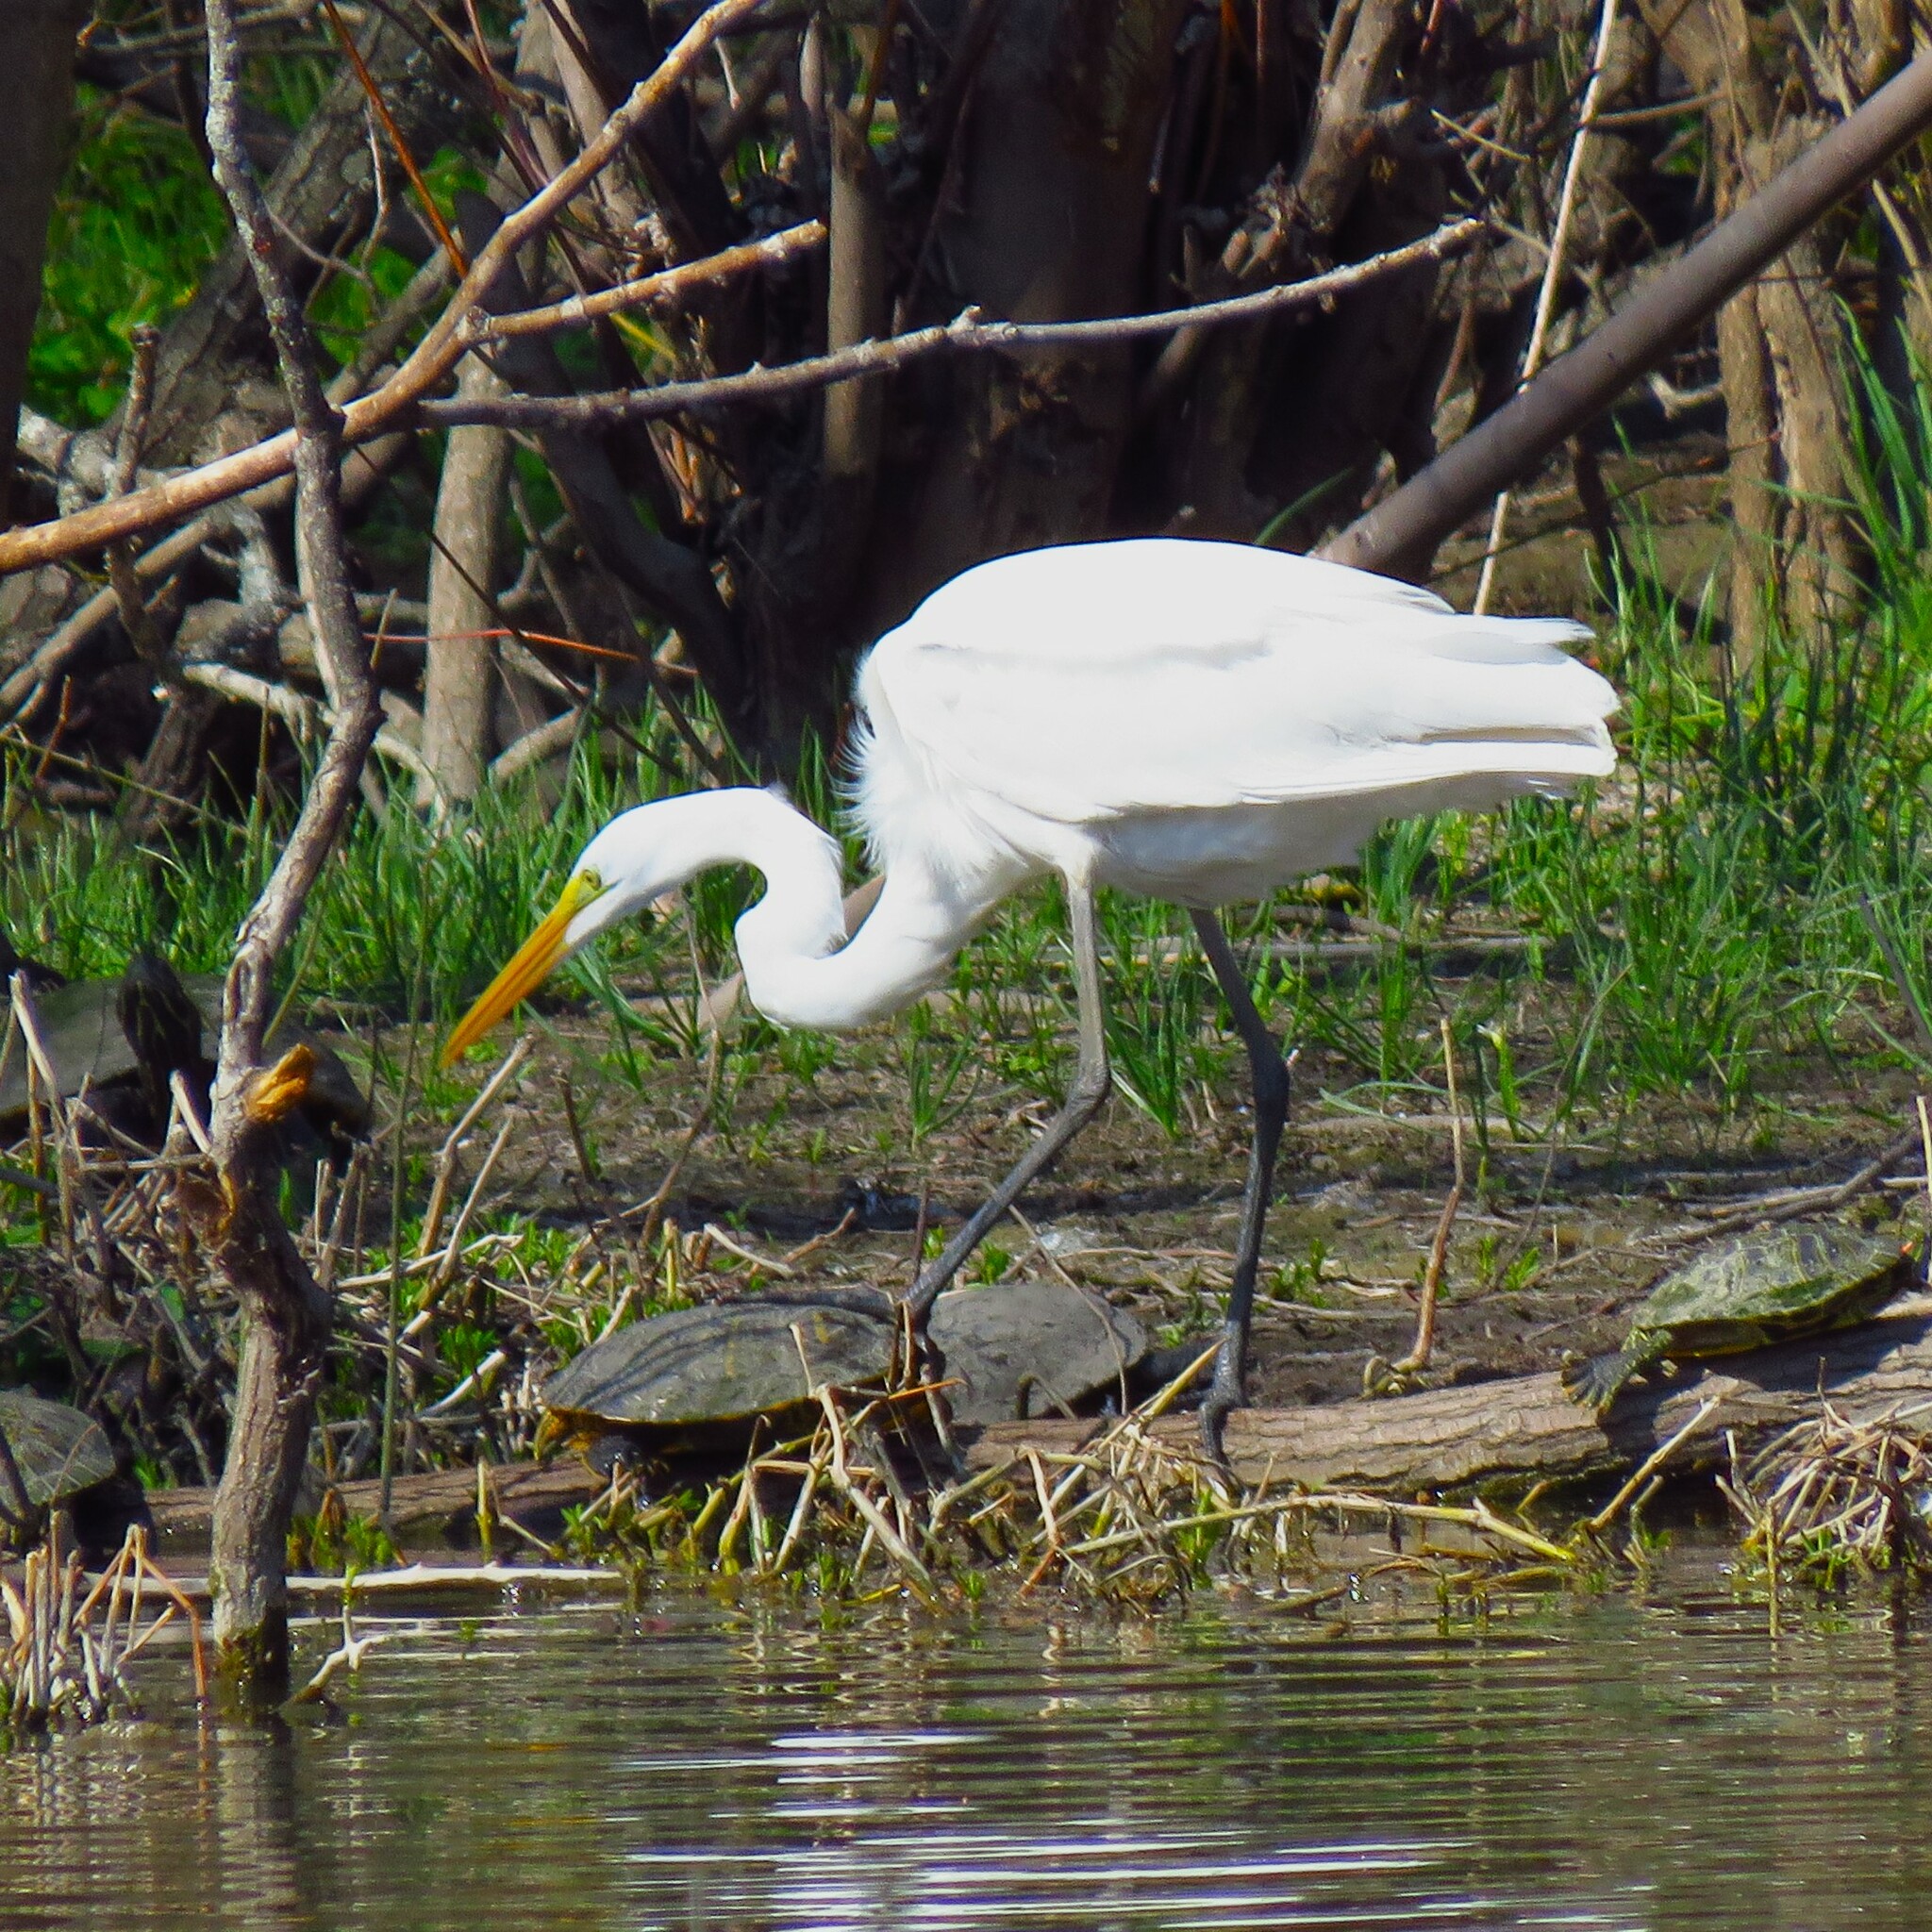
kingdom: Animalia
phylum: Chordata
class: Aves
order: Pelecaniformes
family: Ardeidae
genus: Ardea
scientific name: Ardea alba
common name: Great egret
